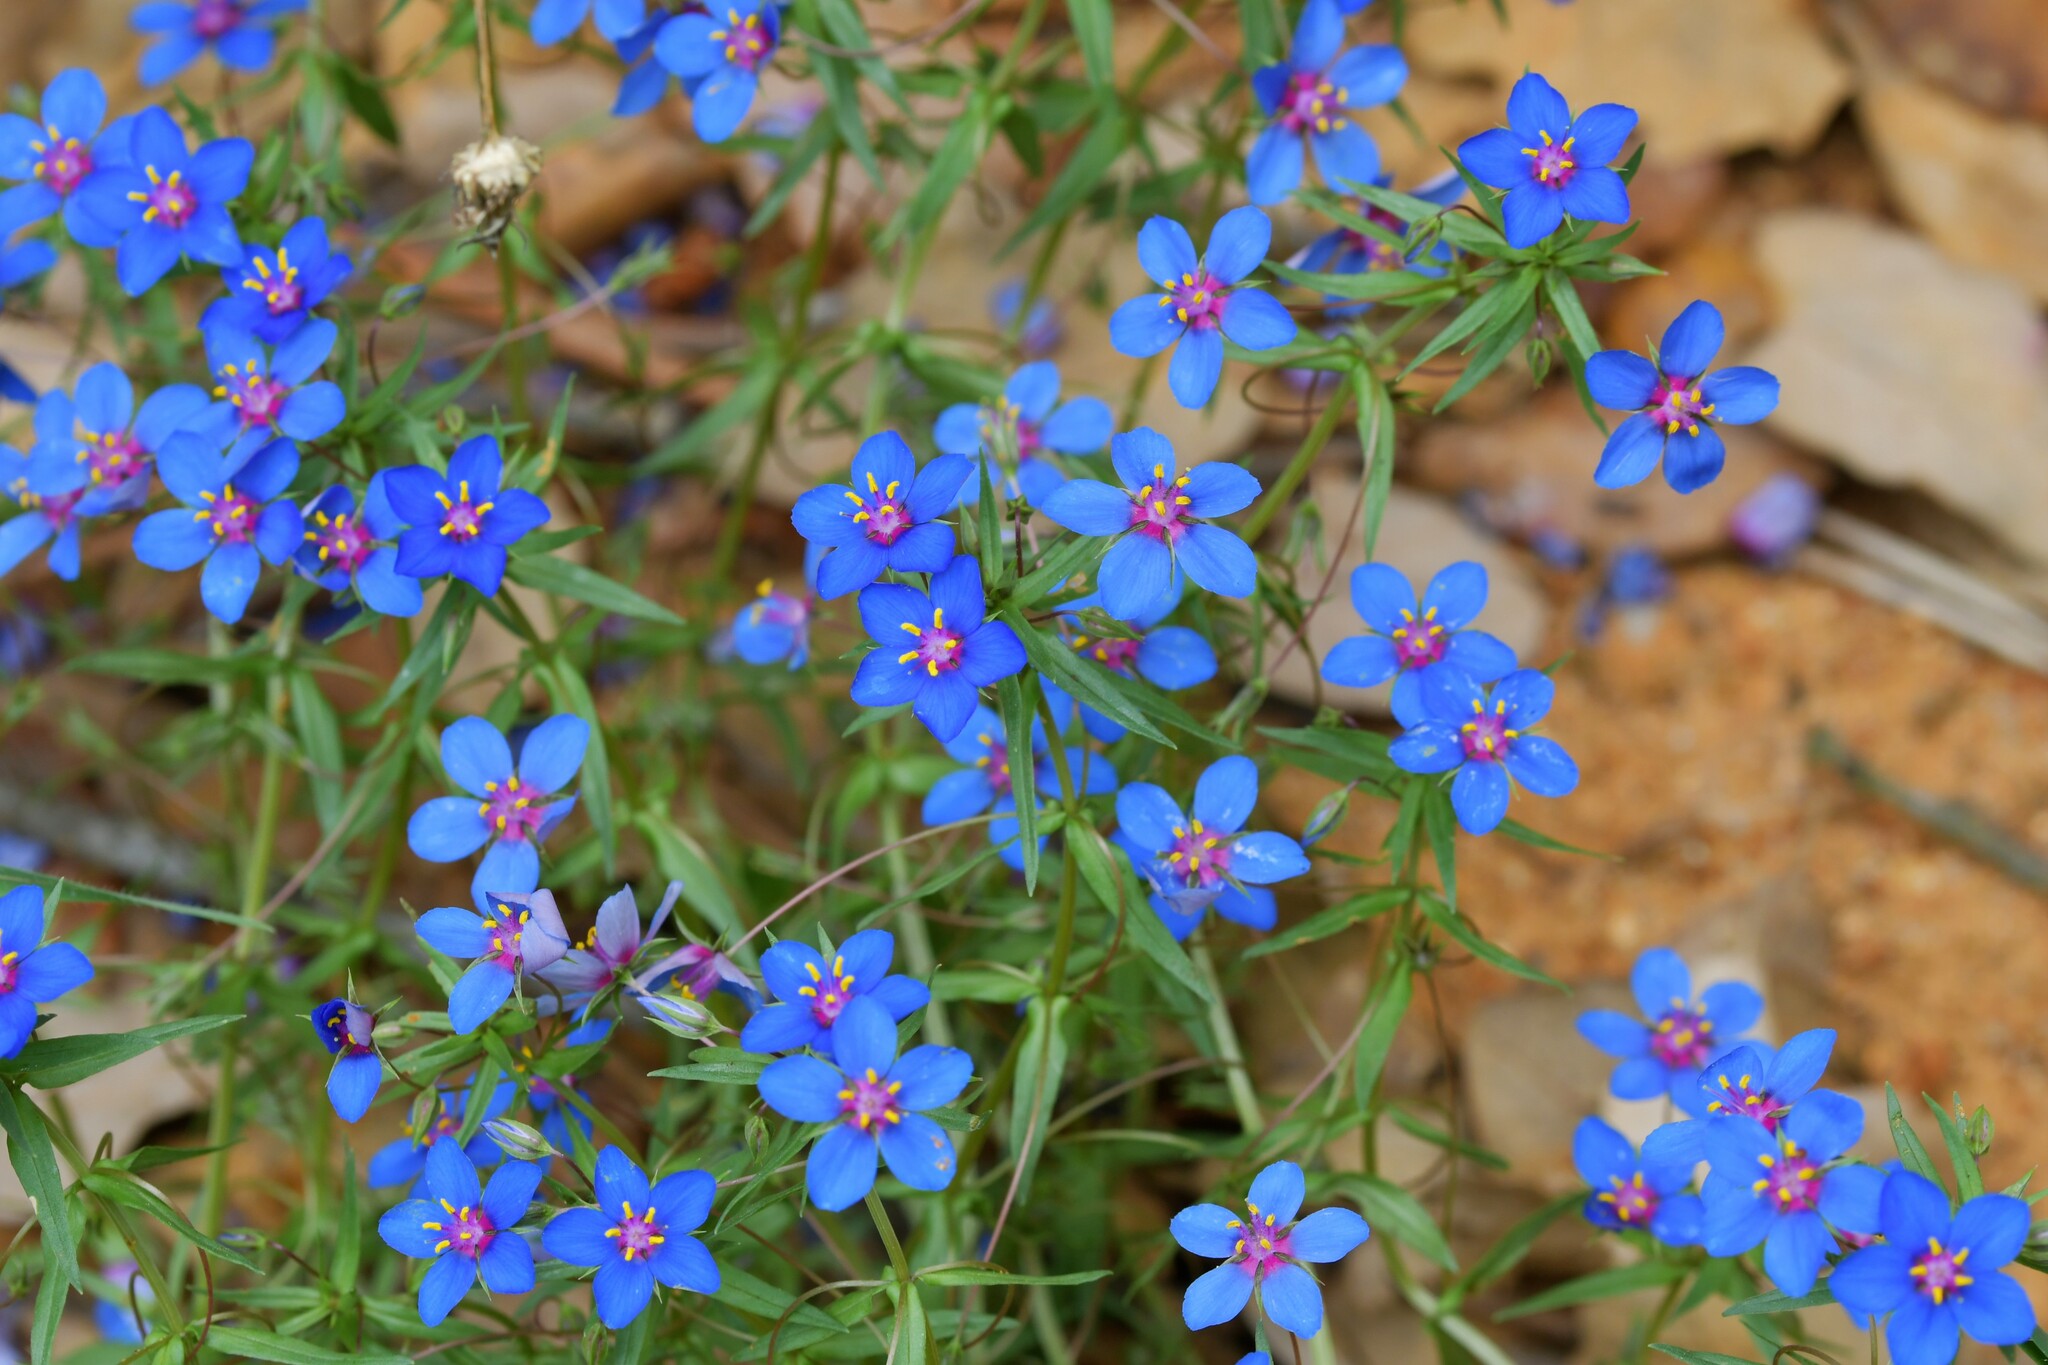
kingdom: Plantae
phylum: Tracheophyta
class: Magnoliopsida
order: Ericales
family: Primulaceae
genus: Lysimachia
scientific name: Lysimachia monelli
